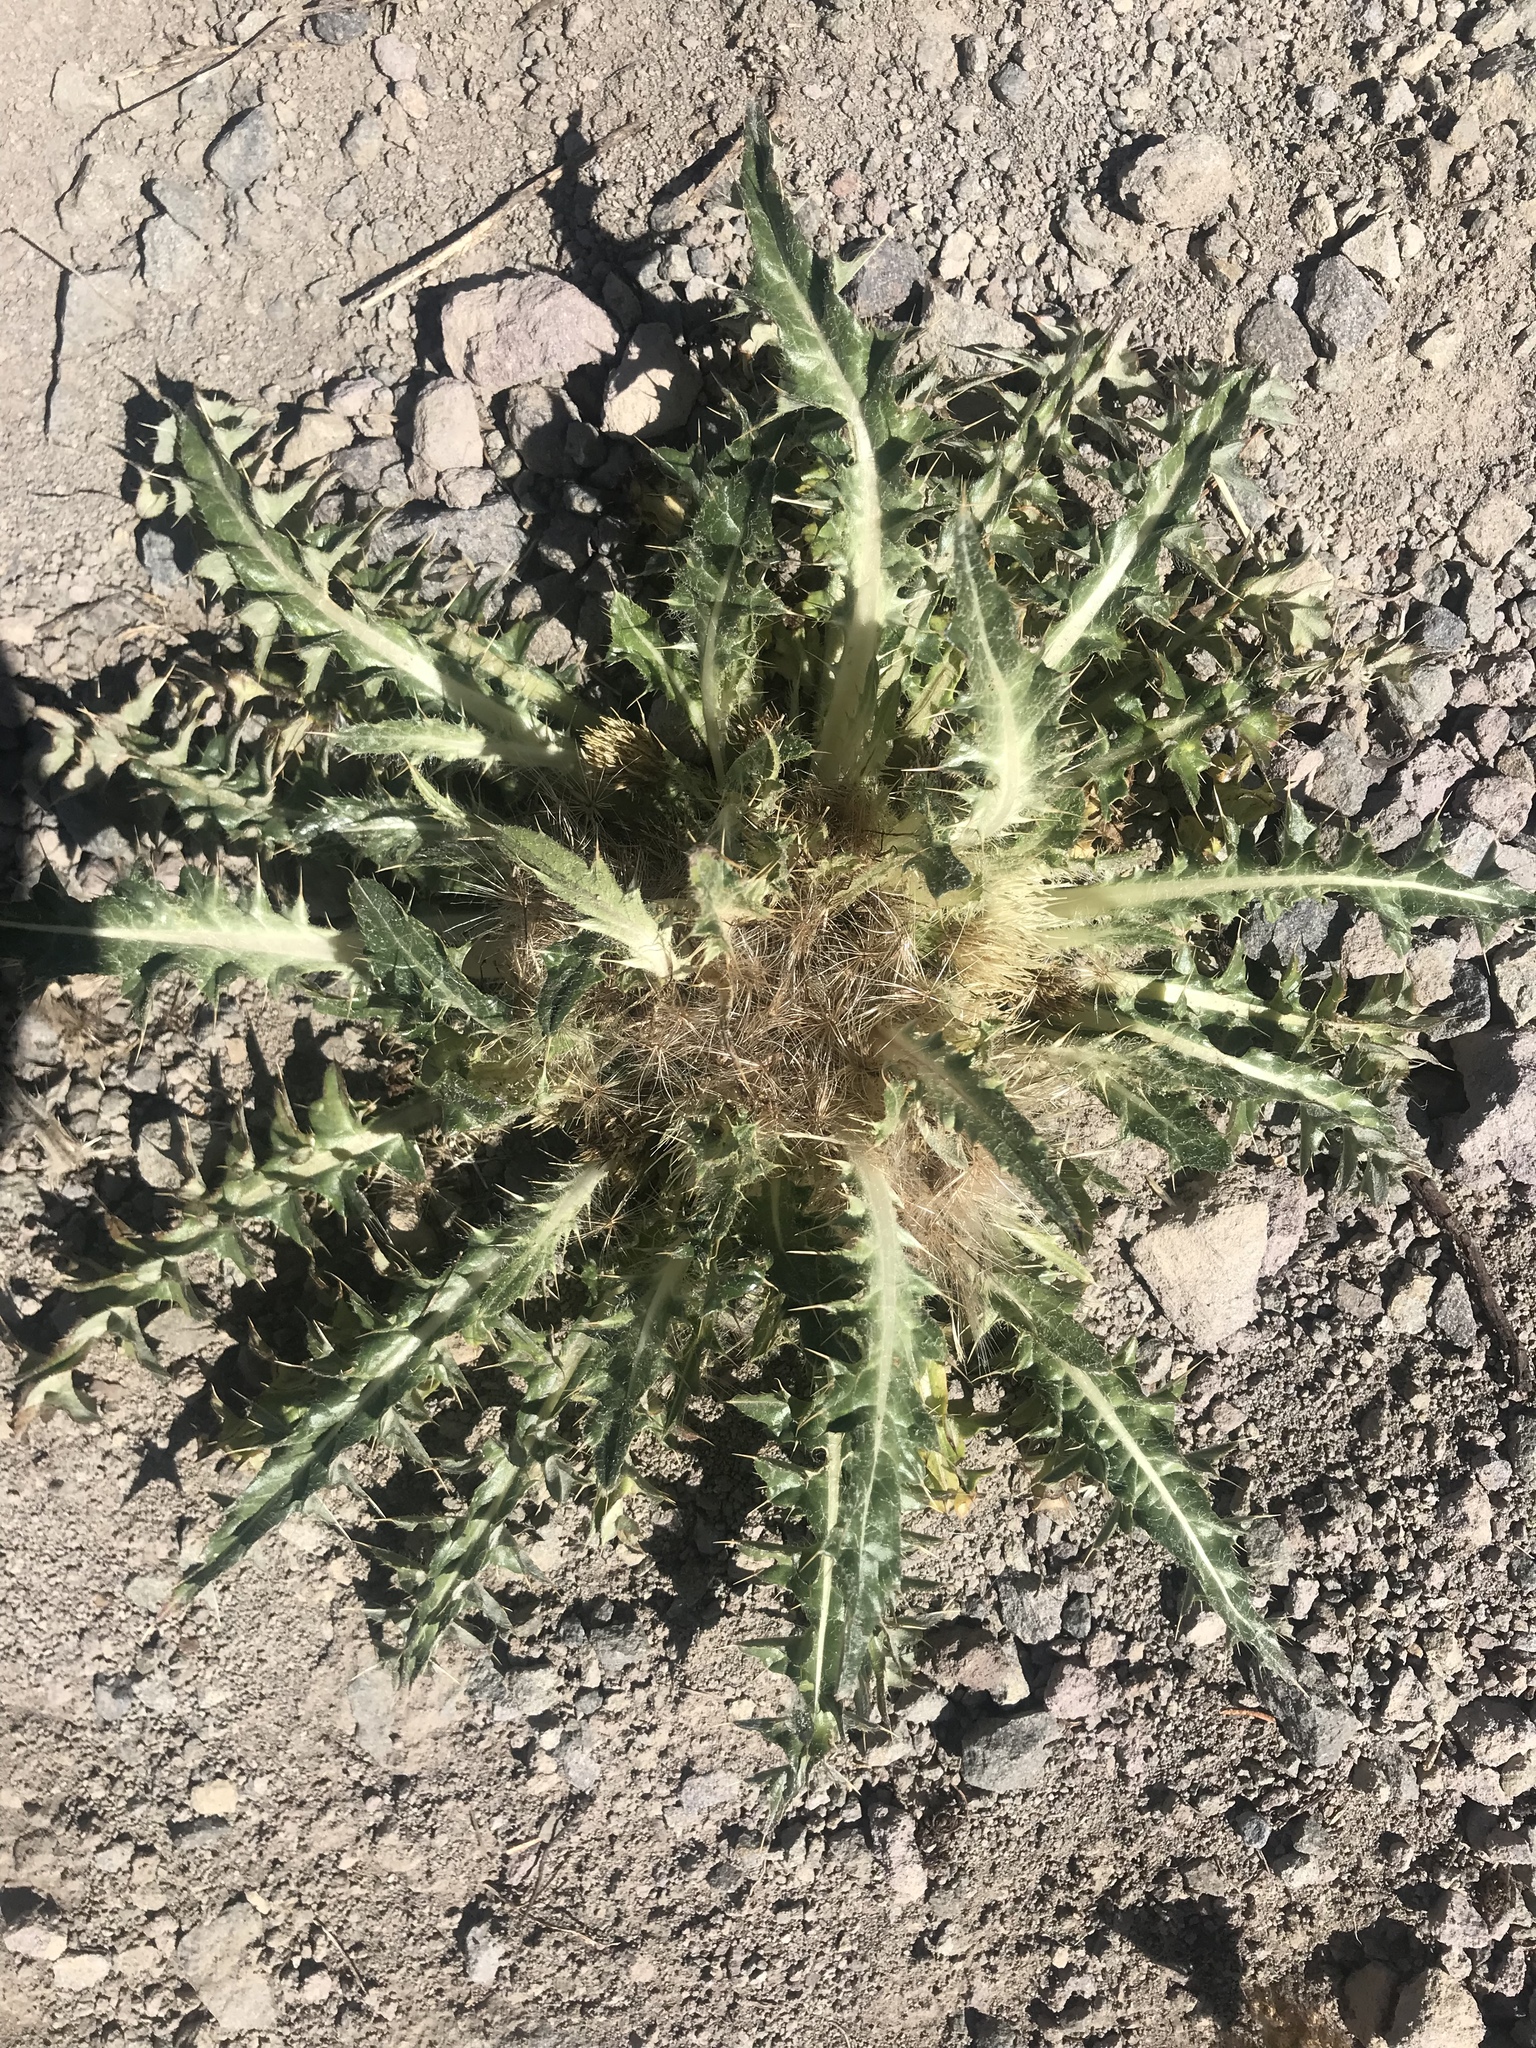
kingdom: Plantae
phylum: Tracheophyta
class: Magnoliopsida
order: Asterales
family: Asteraceae
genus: Cirsium
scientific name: Cirsium scariosum
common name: Meadow thistle
